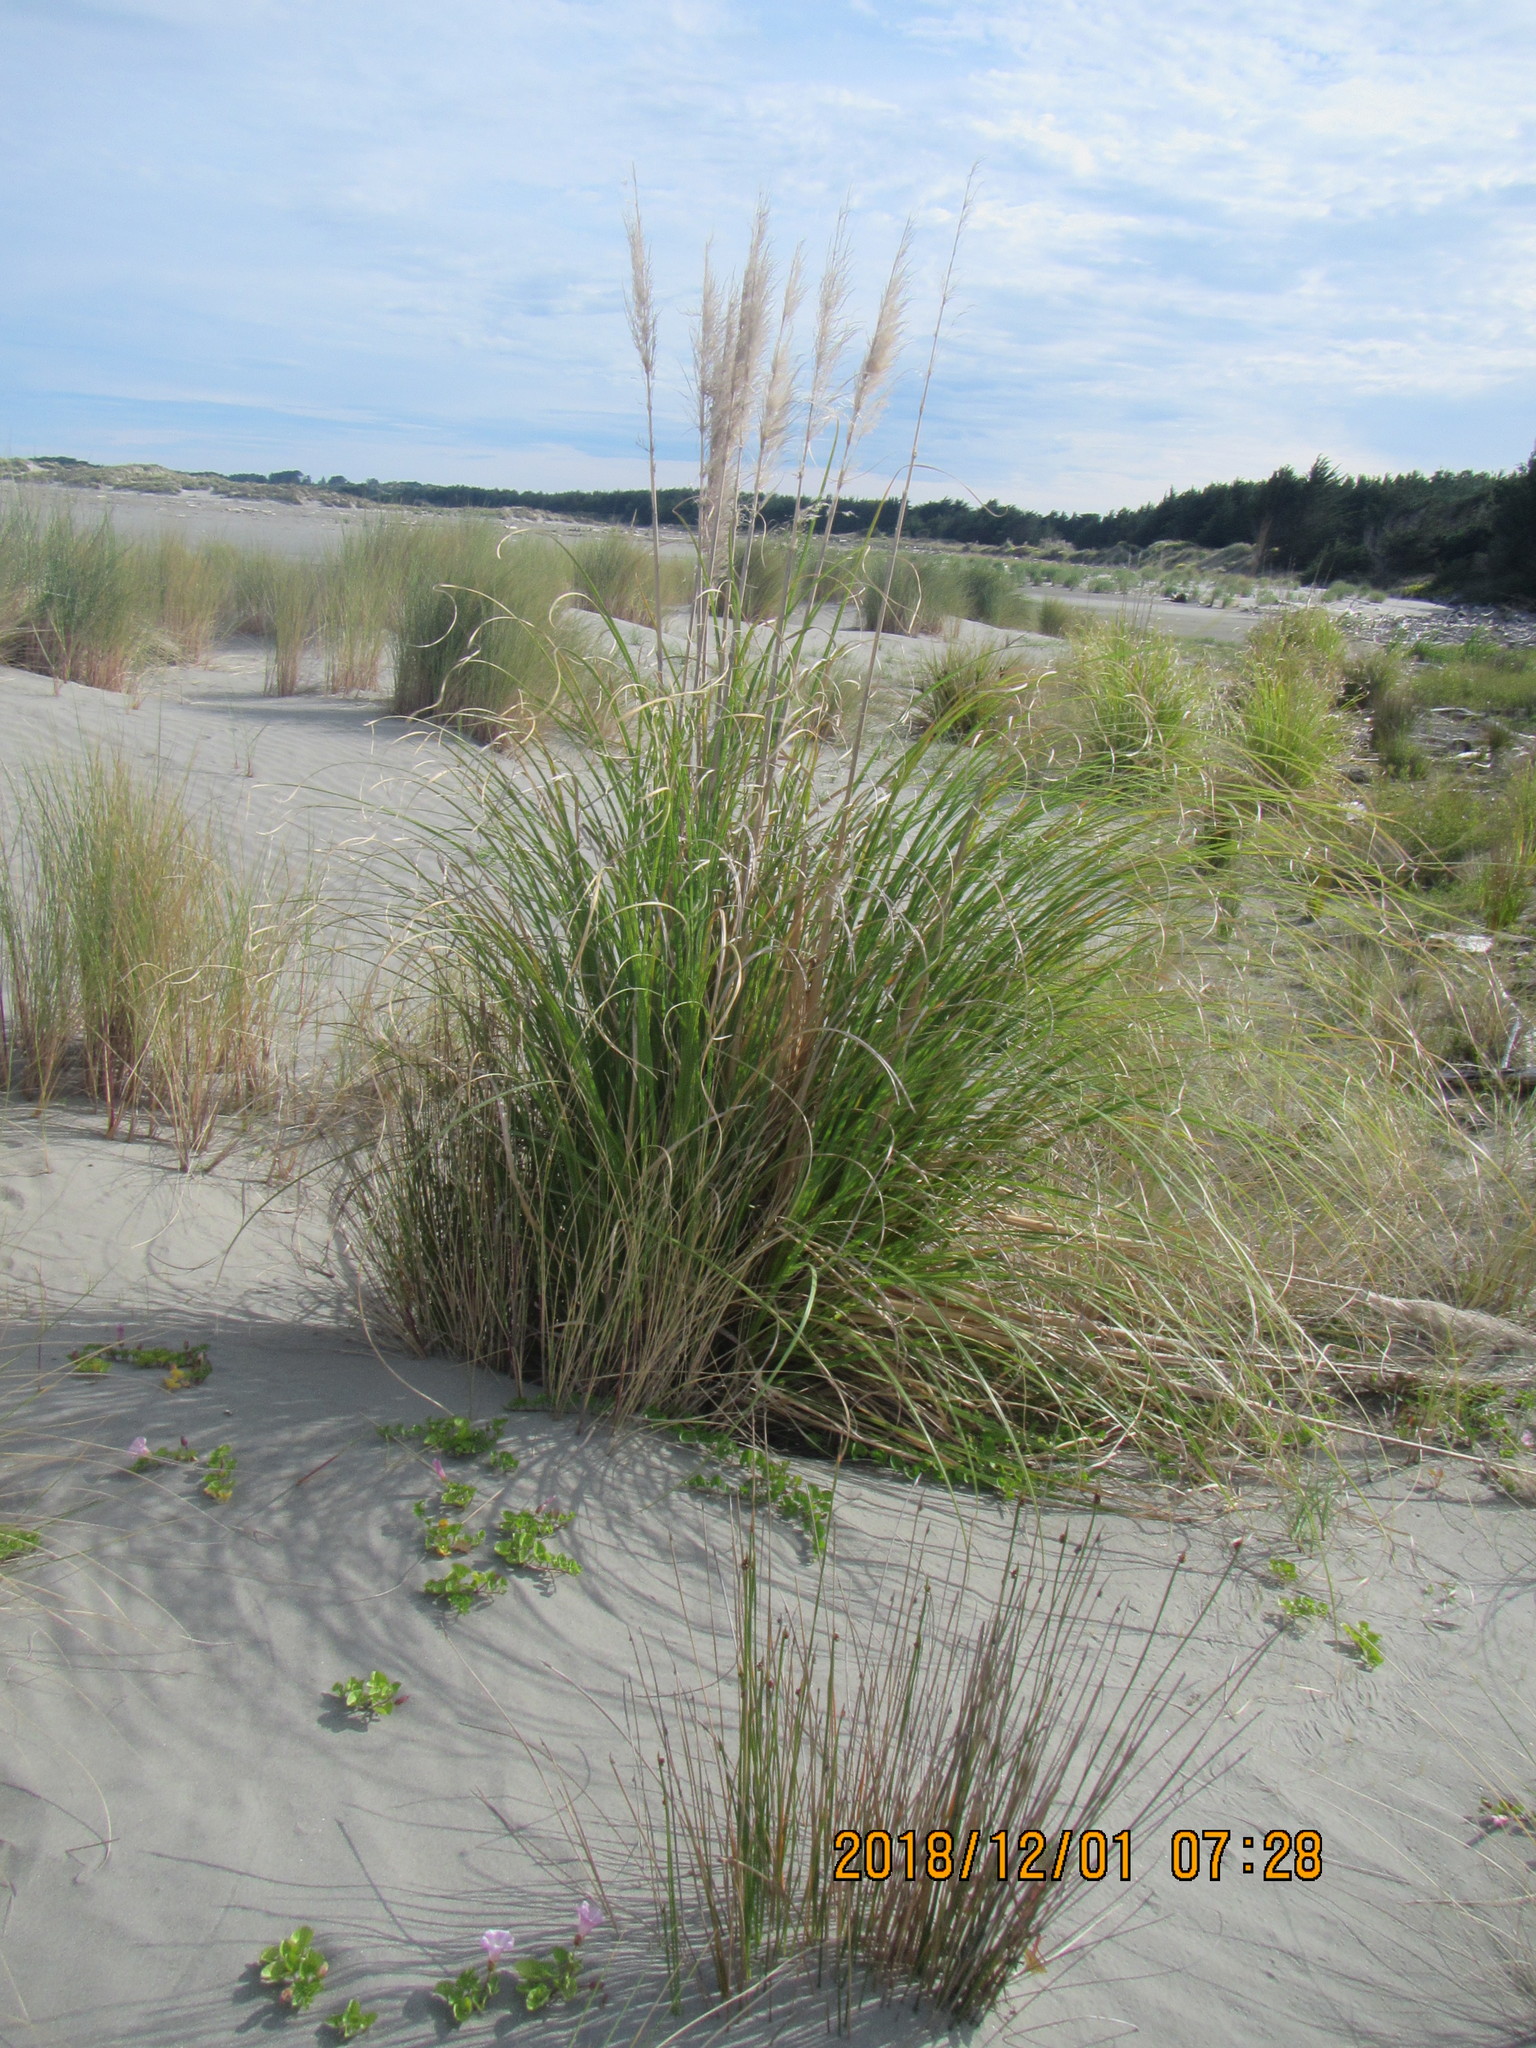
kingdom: Plantae
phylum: Tracheophyta
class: Liliopsida
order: Poales
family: Poaceae
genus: Cortaderia
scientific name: Cortaderia selloana
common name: Uruguayan pampas grass
